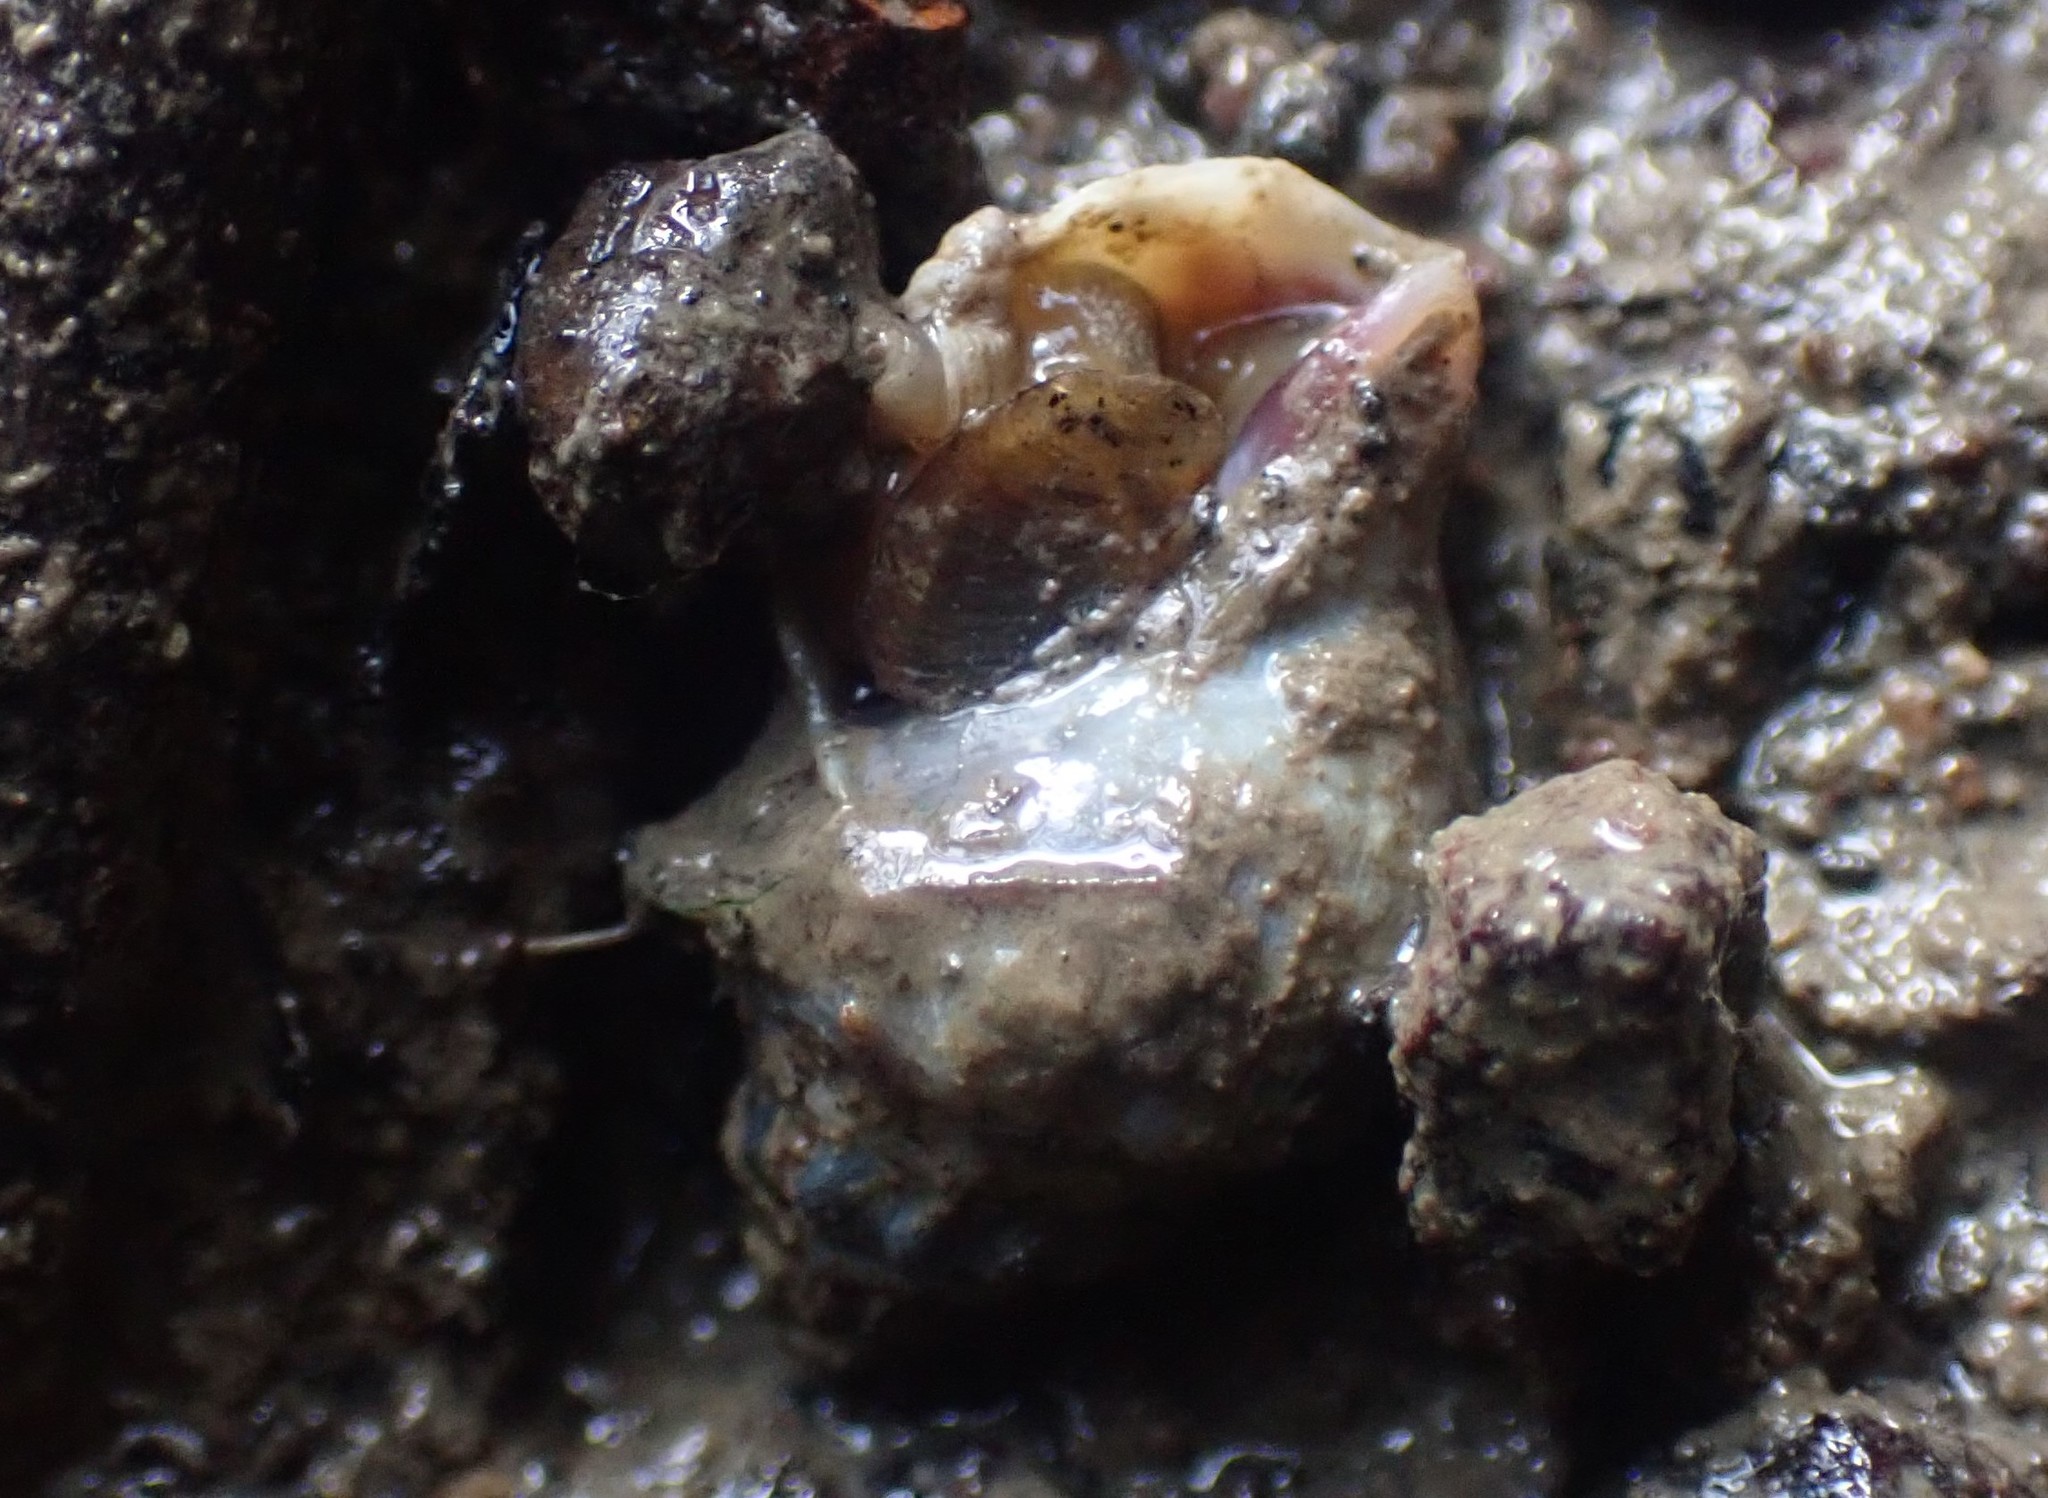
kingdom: Animalia
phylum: Mollusca
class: Gastropoda
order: Neogastropoda
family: Cominellidae
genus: Cominella
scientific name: Cominella glandiformis
